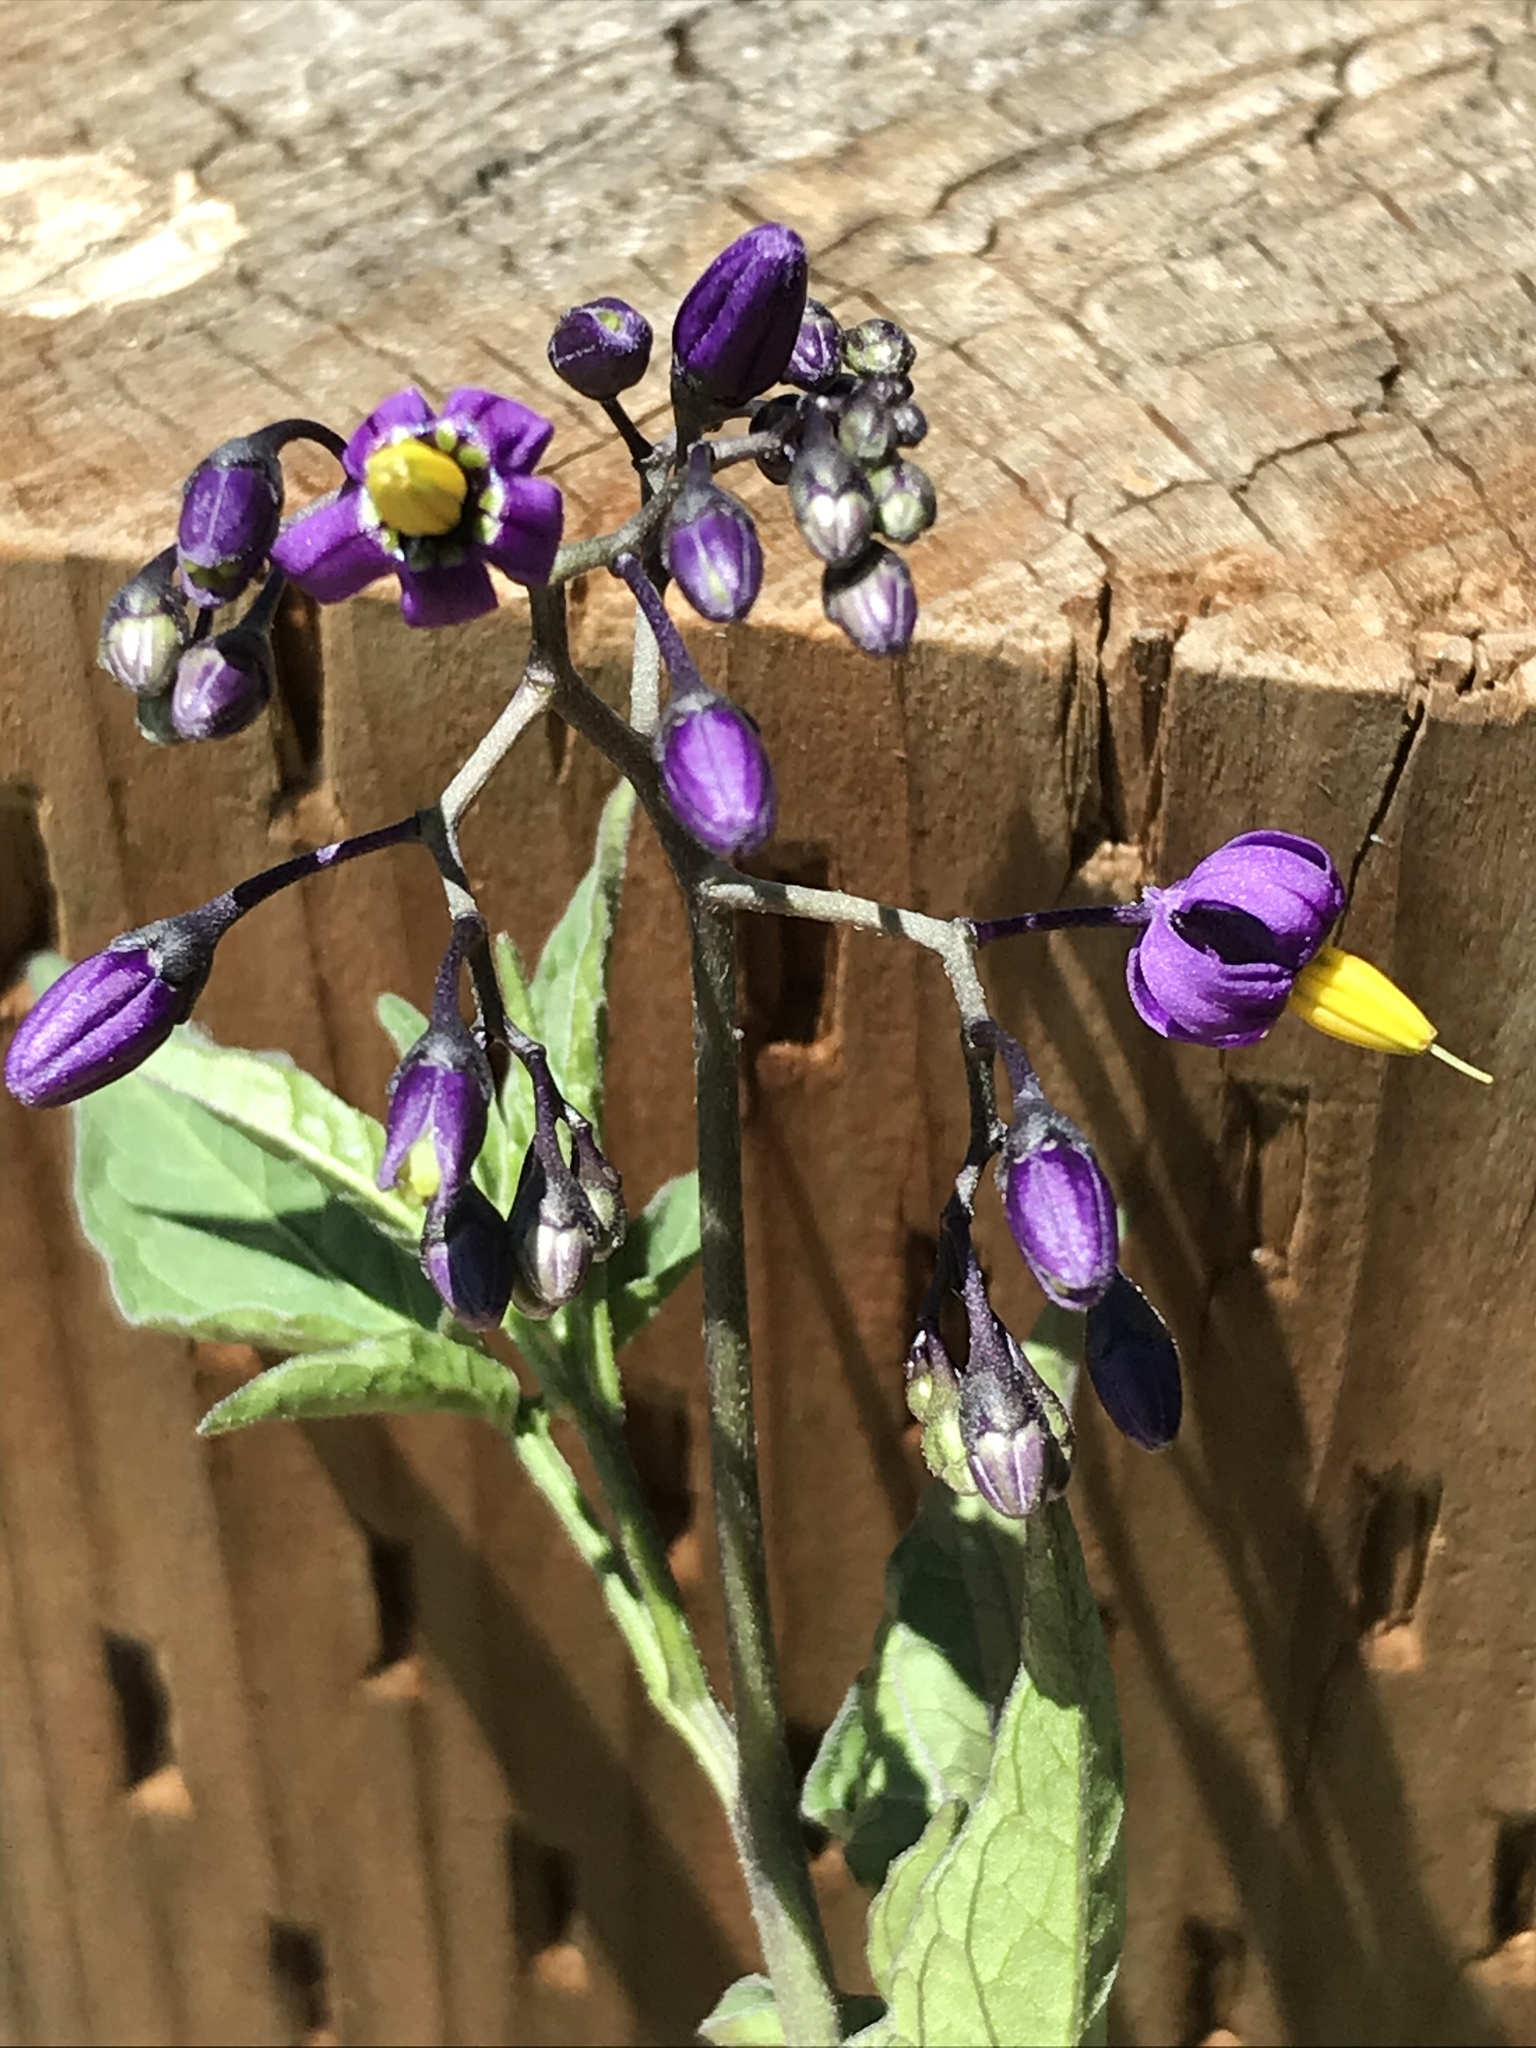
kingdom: Plantae
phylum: Tracheophyta
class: Magnoliopsida
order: Solanales
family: Solanaceae
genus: Solanum
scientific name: Solanum dulcamara
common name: Climbing nightshade
